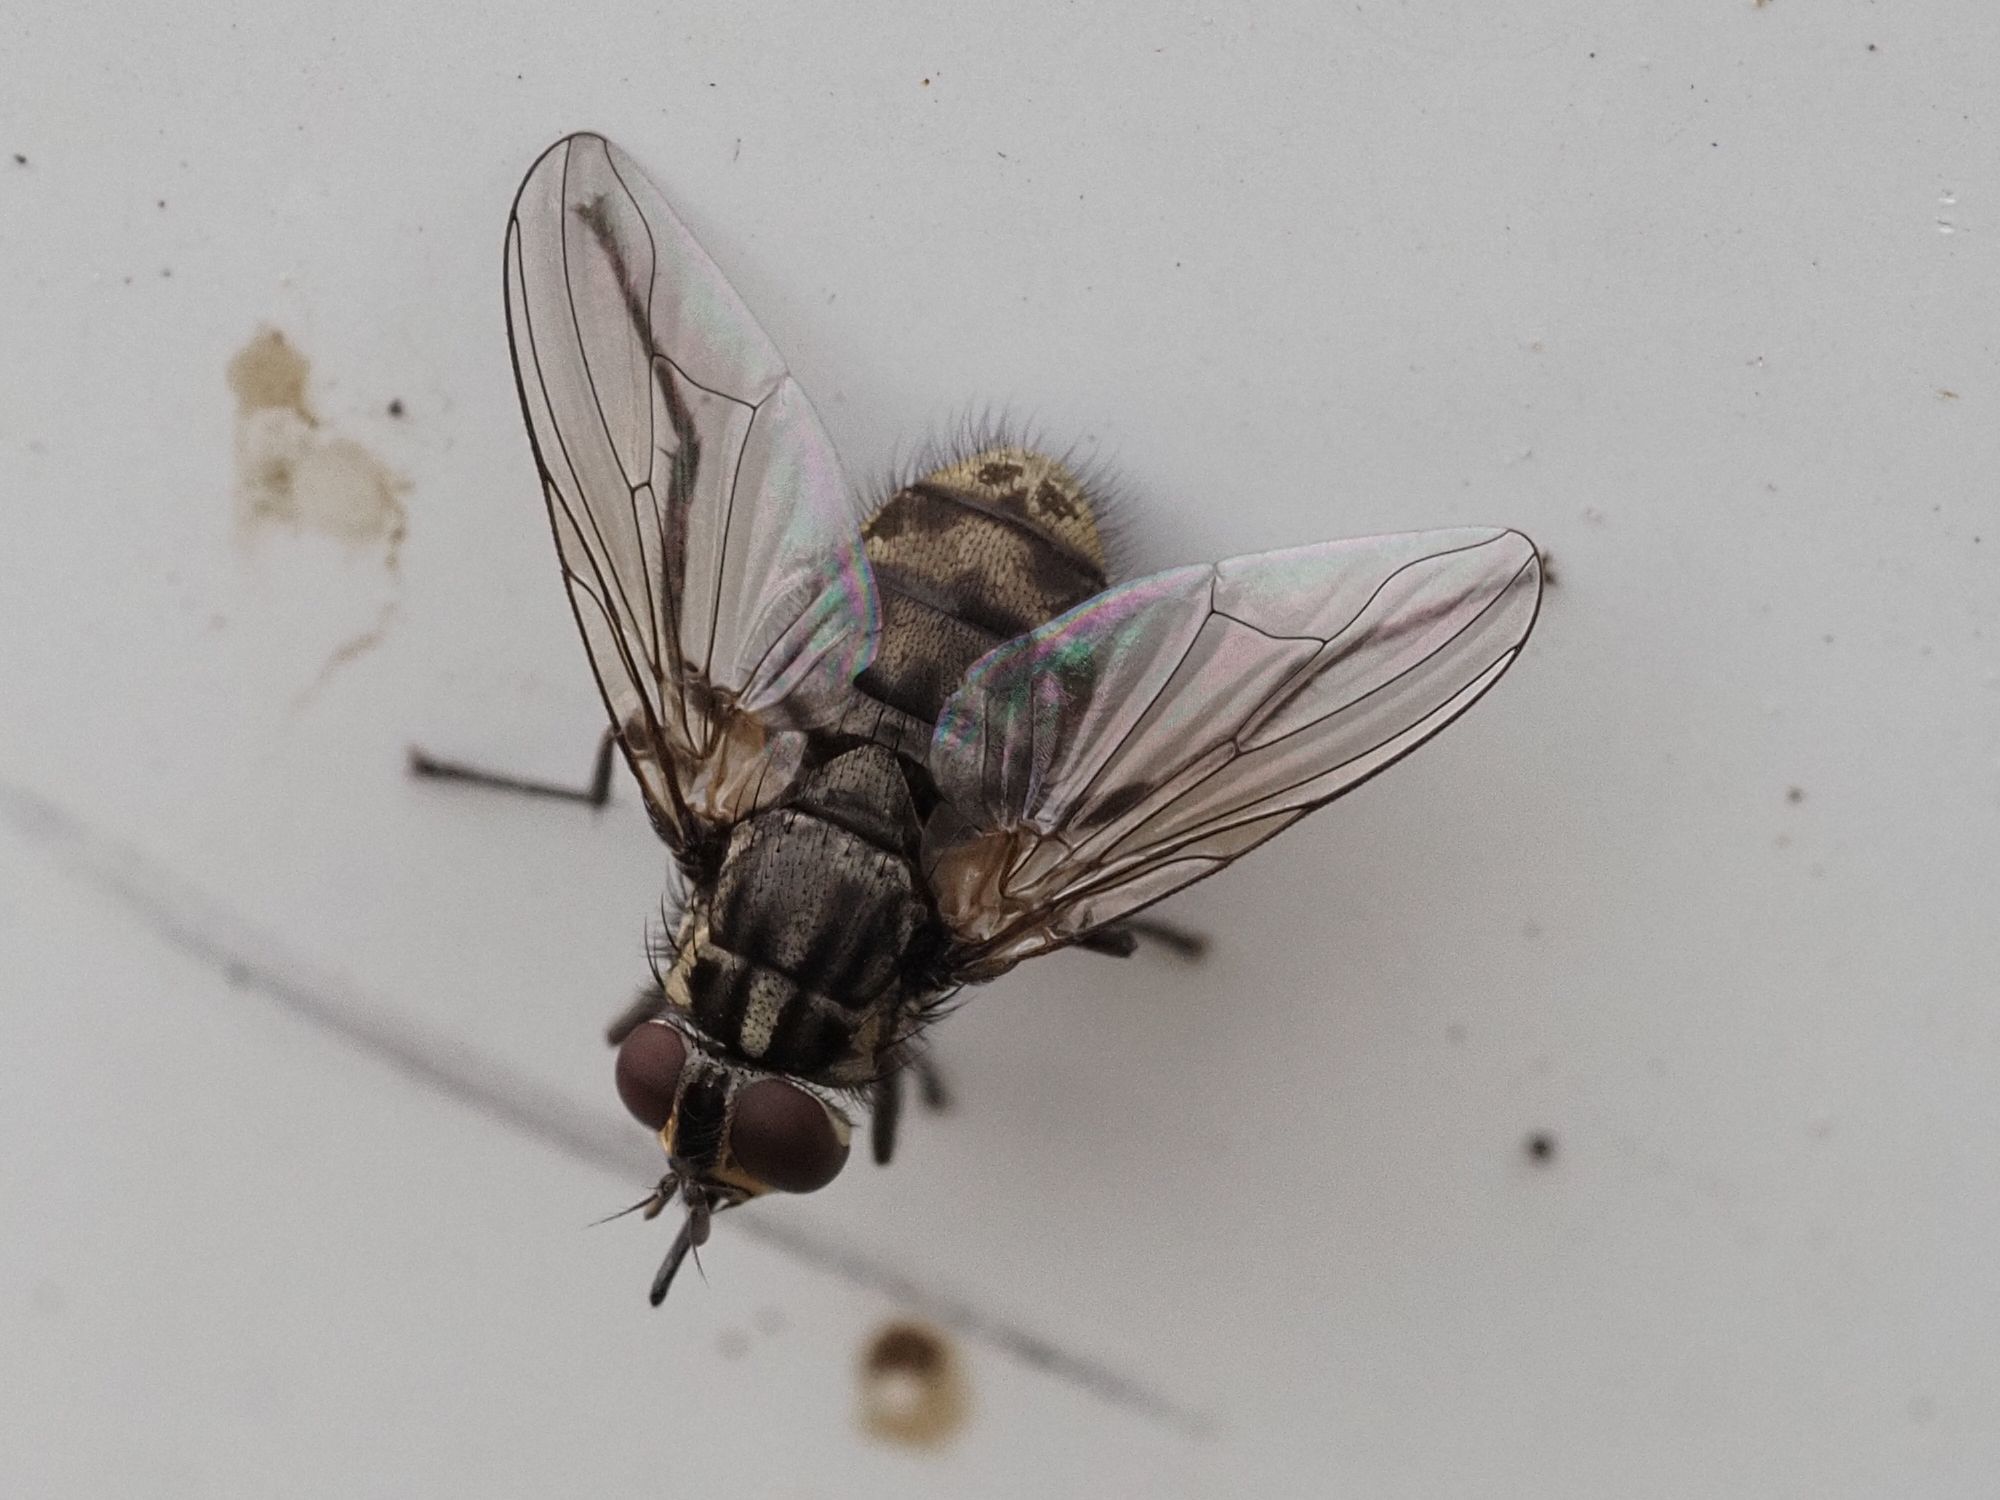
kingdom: Animalia
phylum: Arthropoda
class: Insecta
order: Diptera
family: Muscidae
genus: Stomoxys
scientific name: Stomoxys calcitrans
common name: Stable fly
